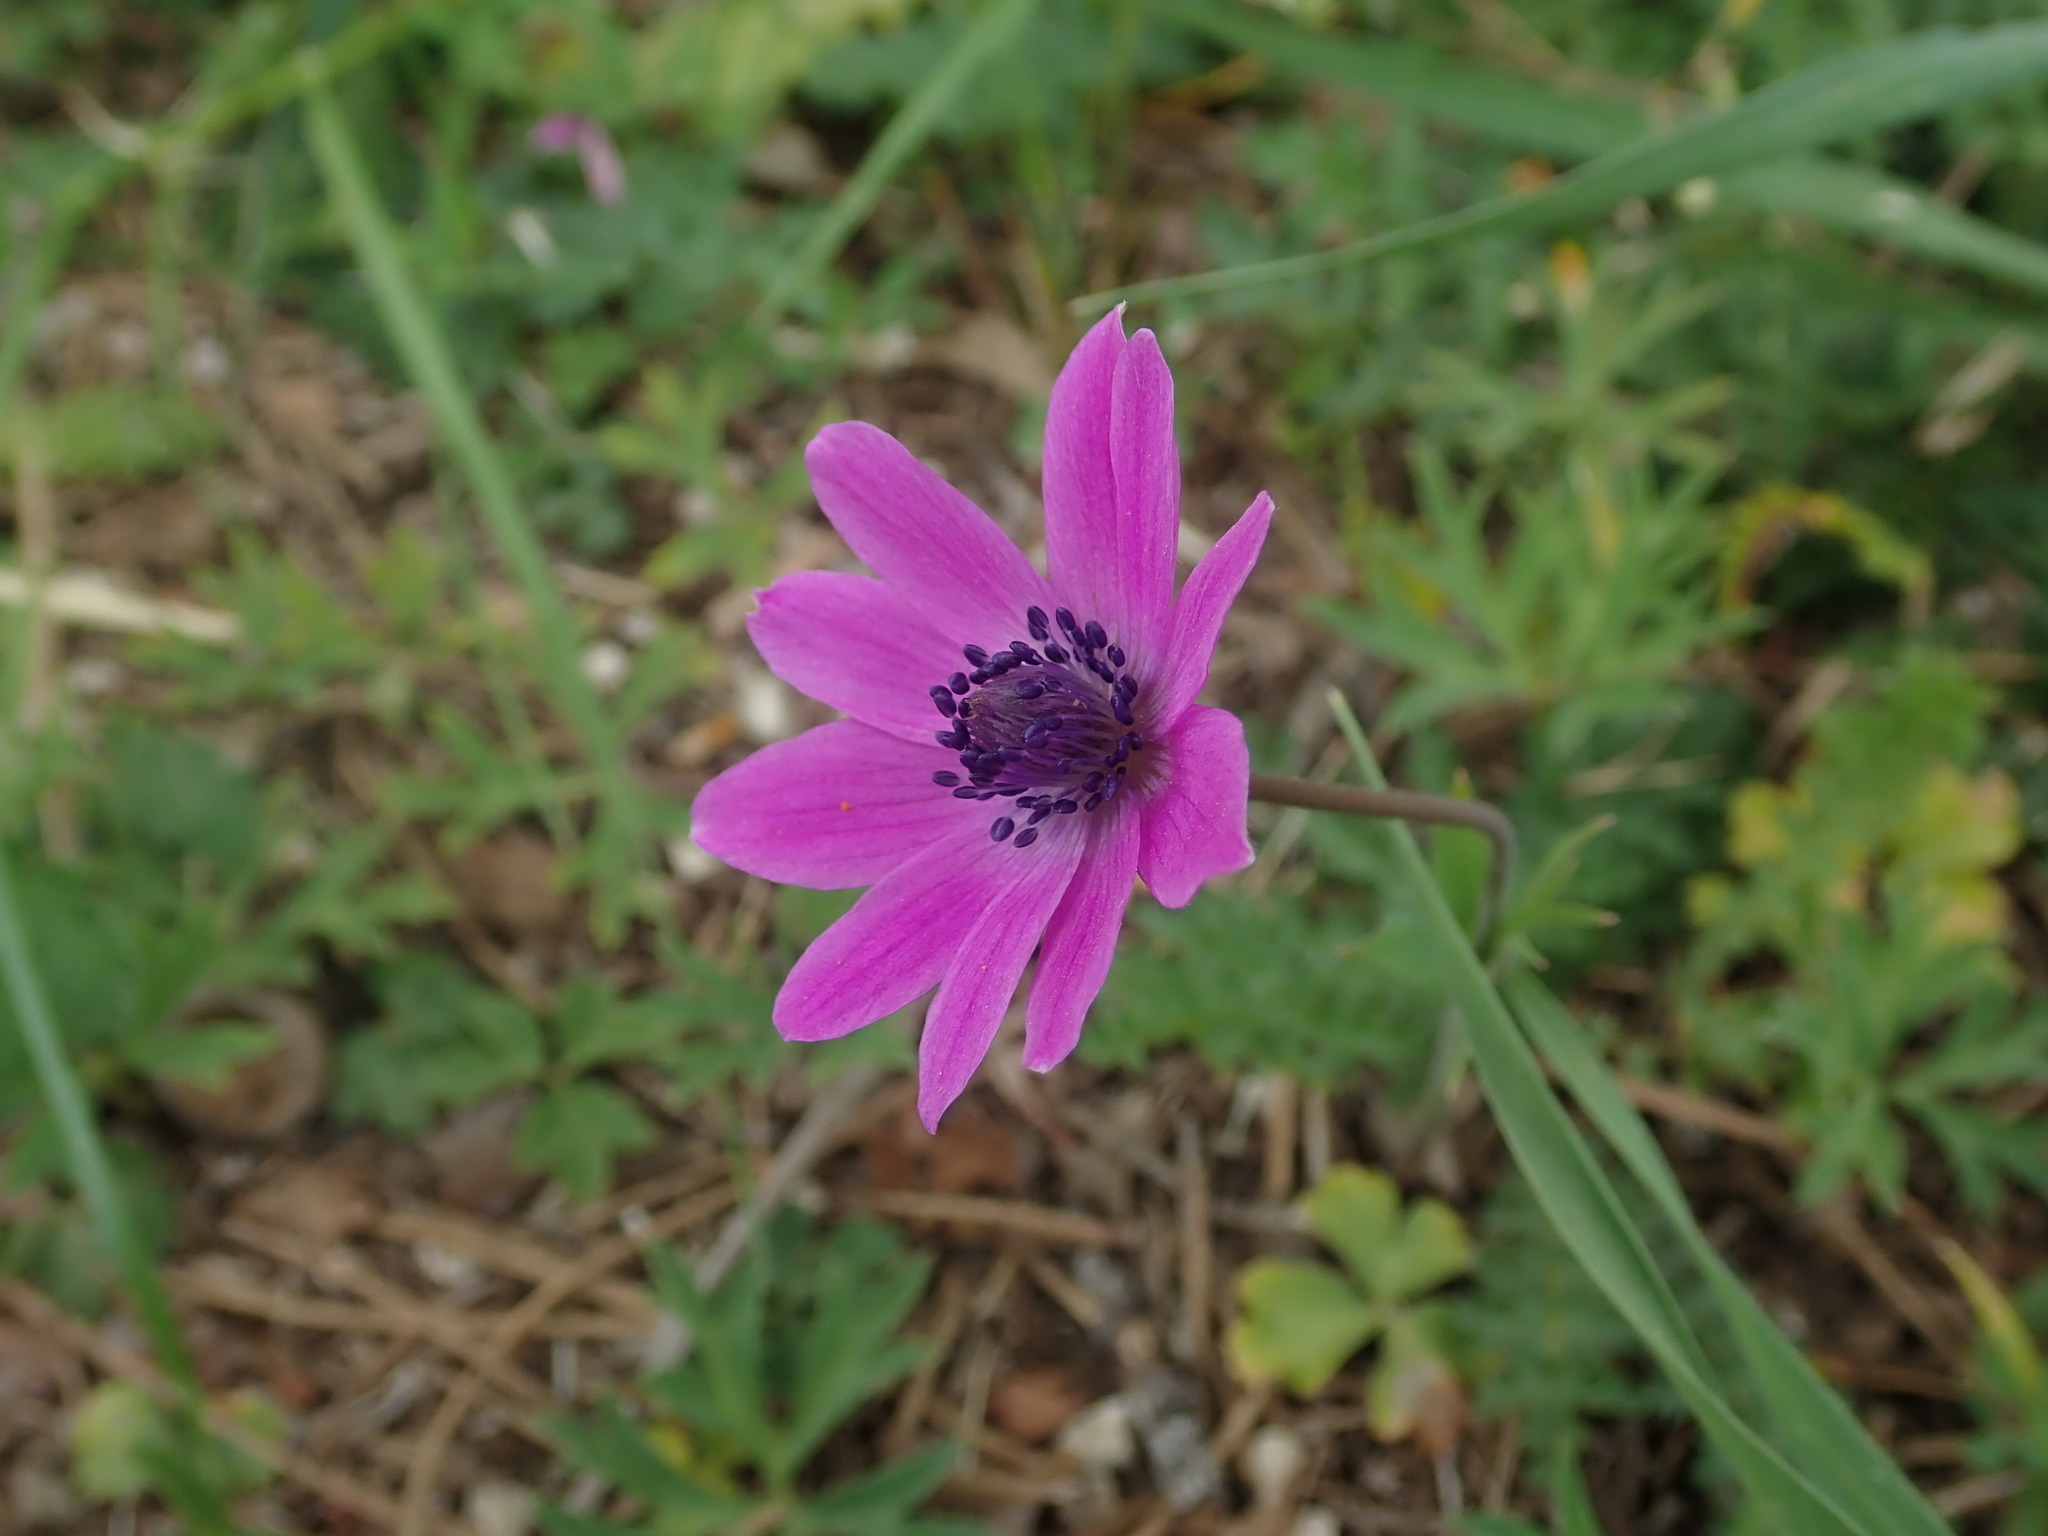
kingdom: Plantae
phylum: Tracheophyta
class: Magnoliopsida
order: Ranunculales
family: Ranunculaceae
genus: Anemone
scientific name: Anemone hortensis
